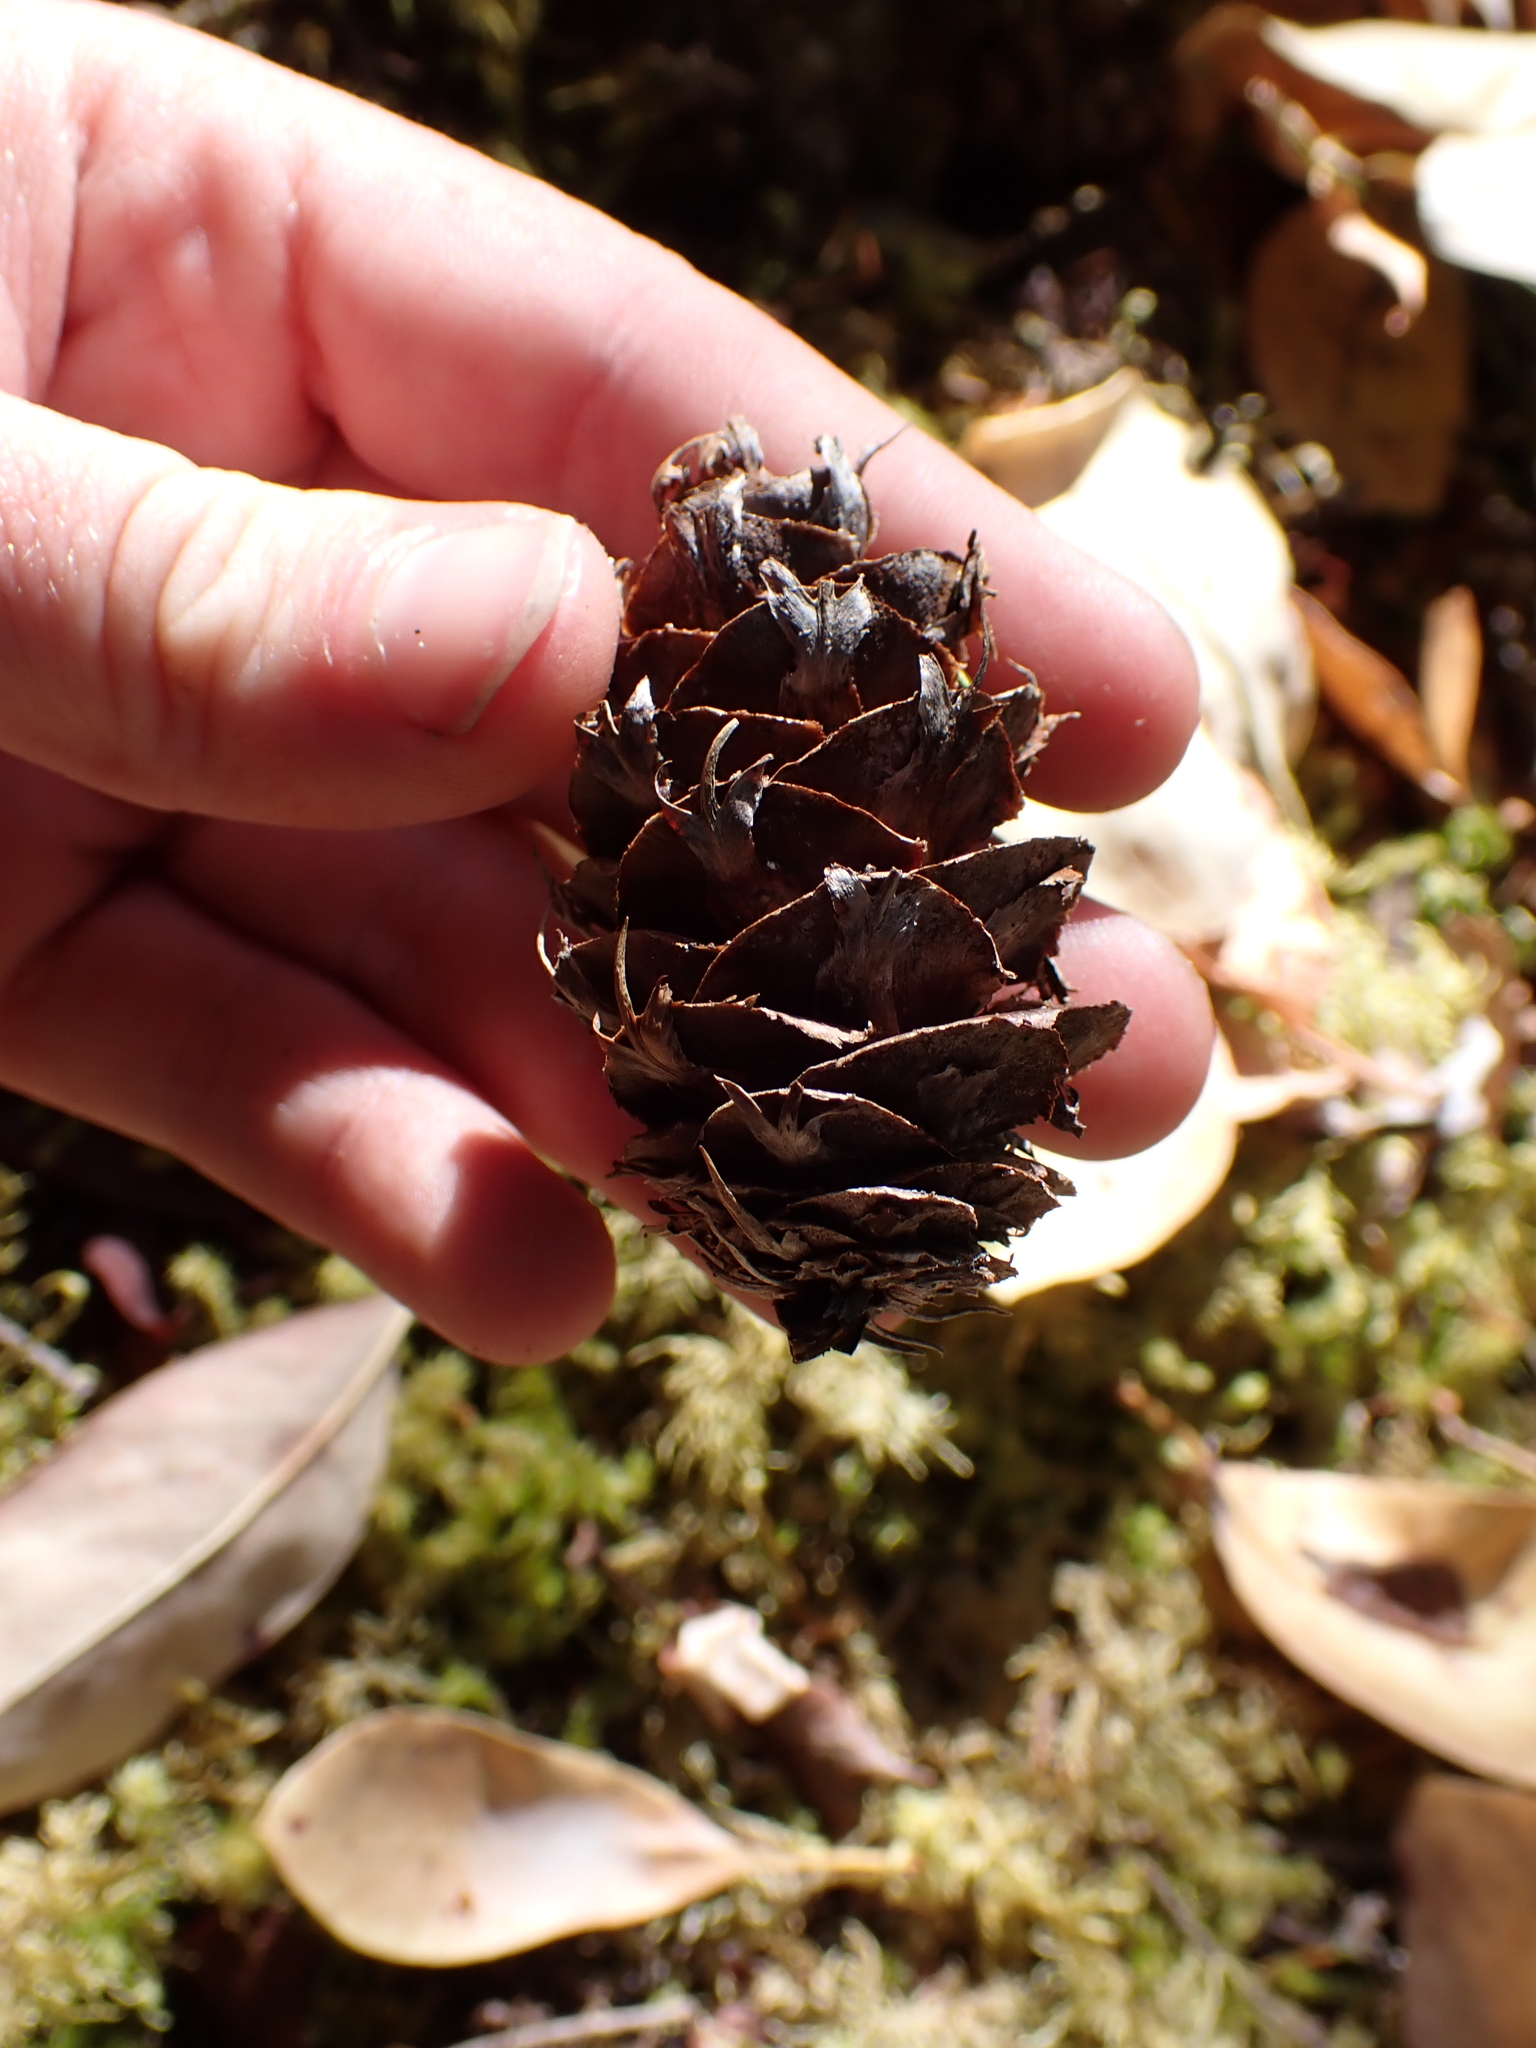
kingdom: Plantae
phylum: Tracheophyta
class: Pinopsida
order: Pinales
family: Pinaceae
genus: Pseudotsuga
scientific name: Pseudotsuga menziesii
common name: Douglas fir
